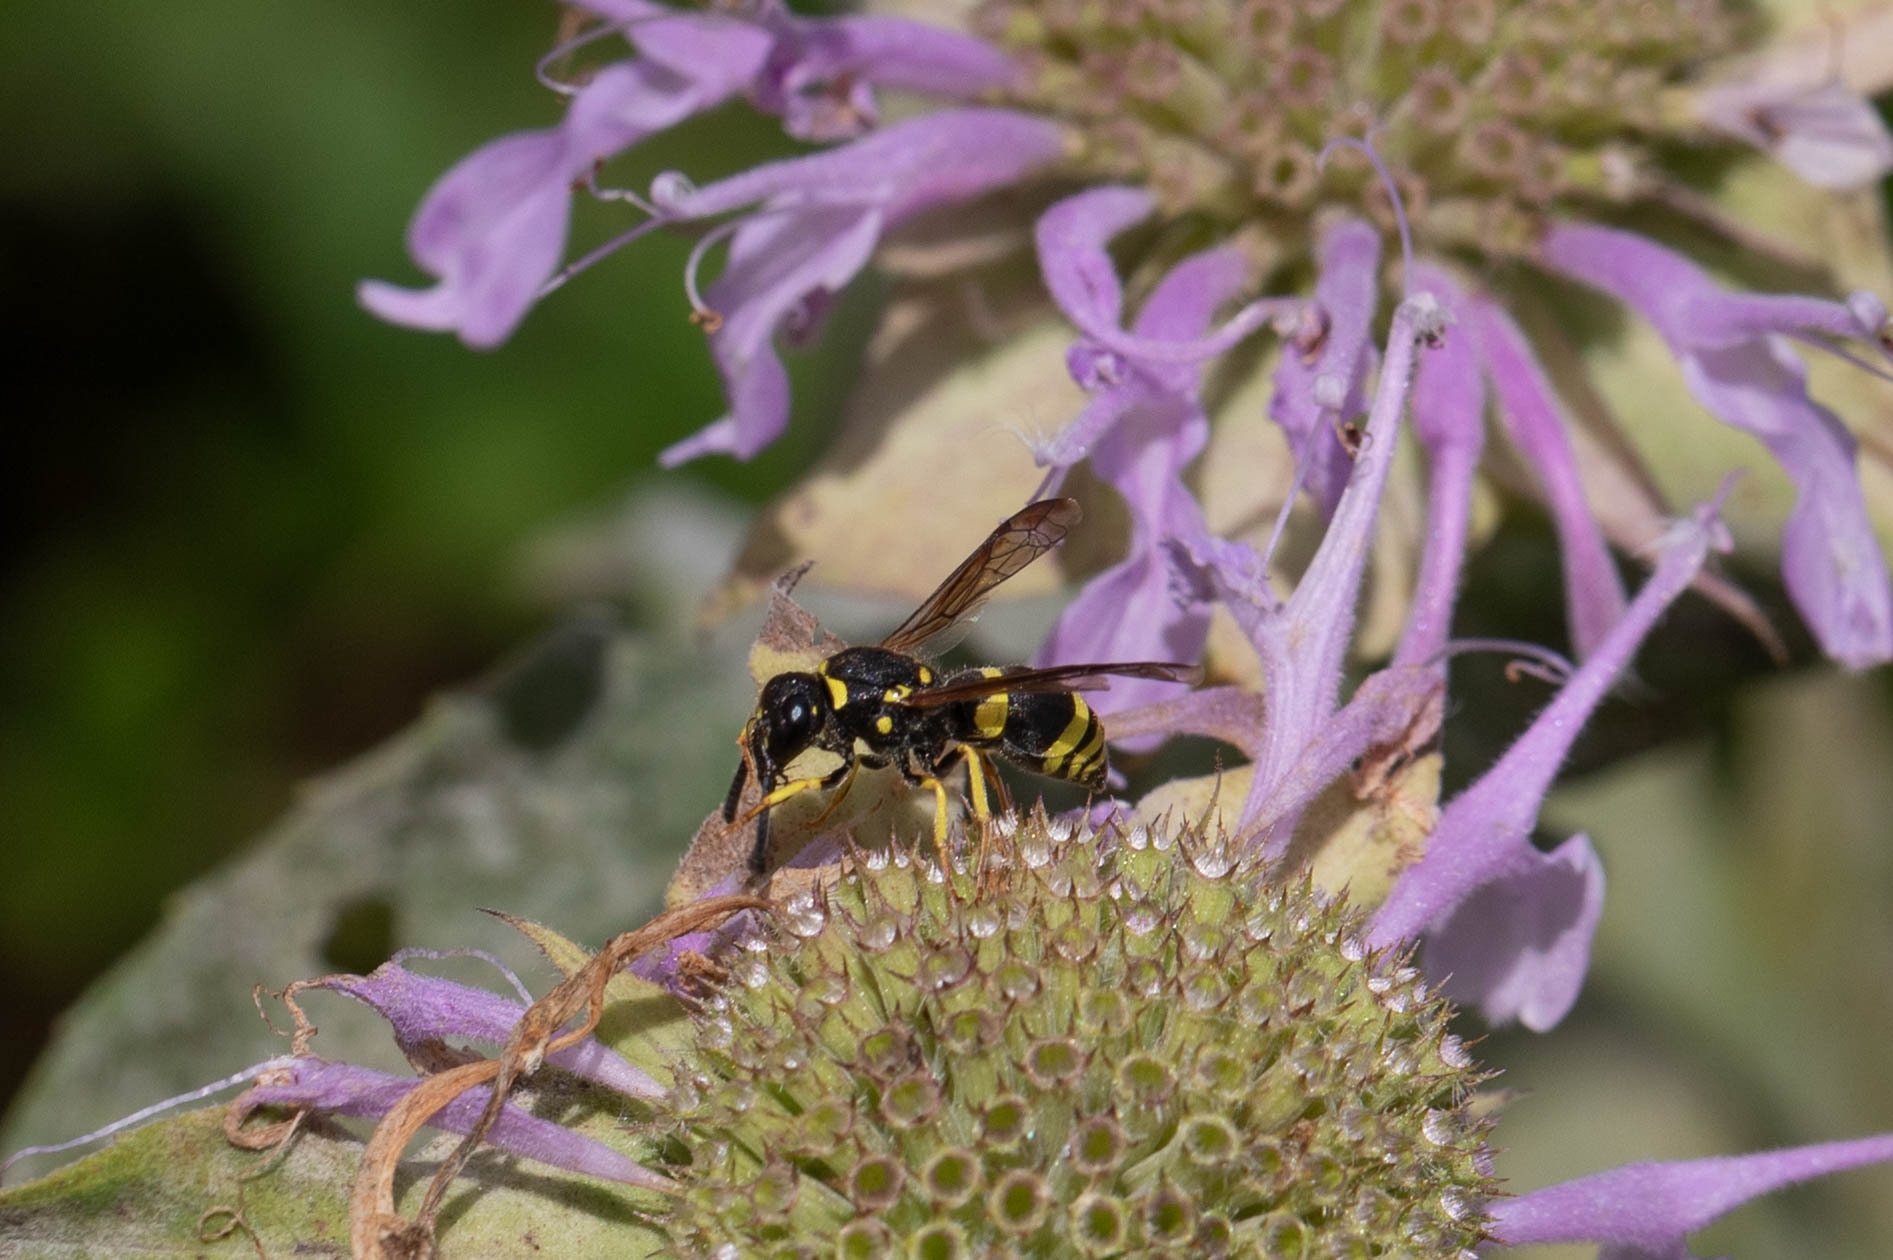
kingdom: Animalia
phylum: Arthropoda
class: Insecta
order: Hymenoptera
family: Vespidae
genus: Ancistrocerus
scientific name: Ancistrocerus gazella
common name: European tube wasp
